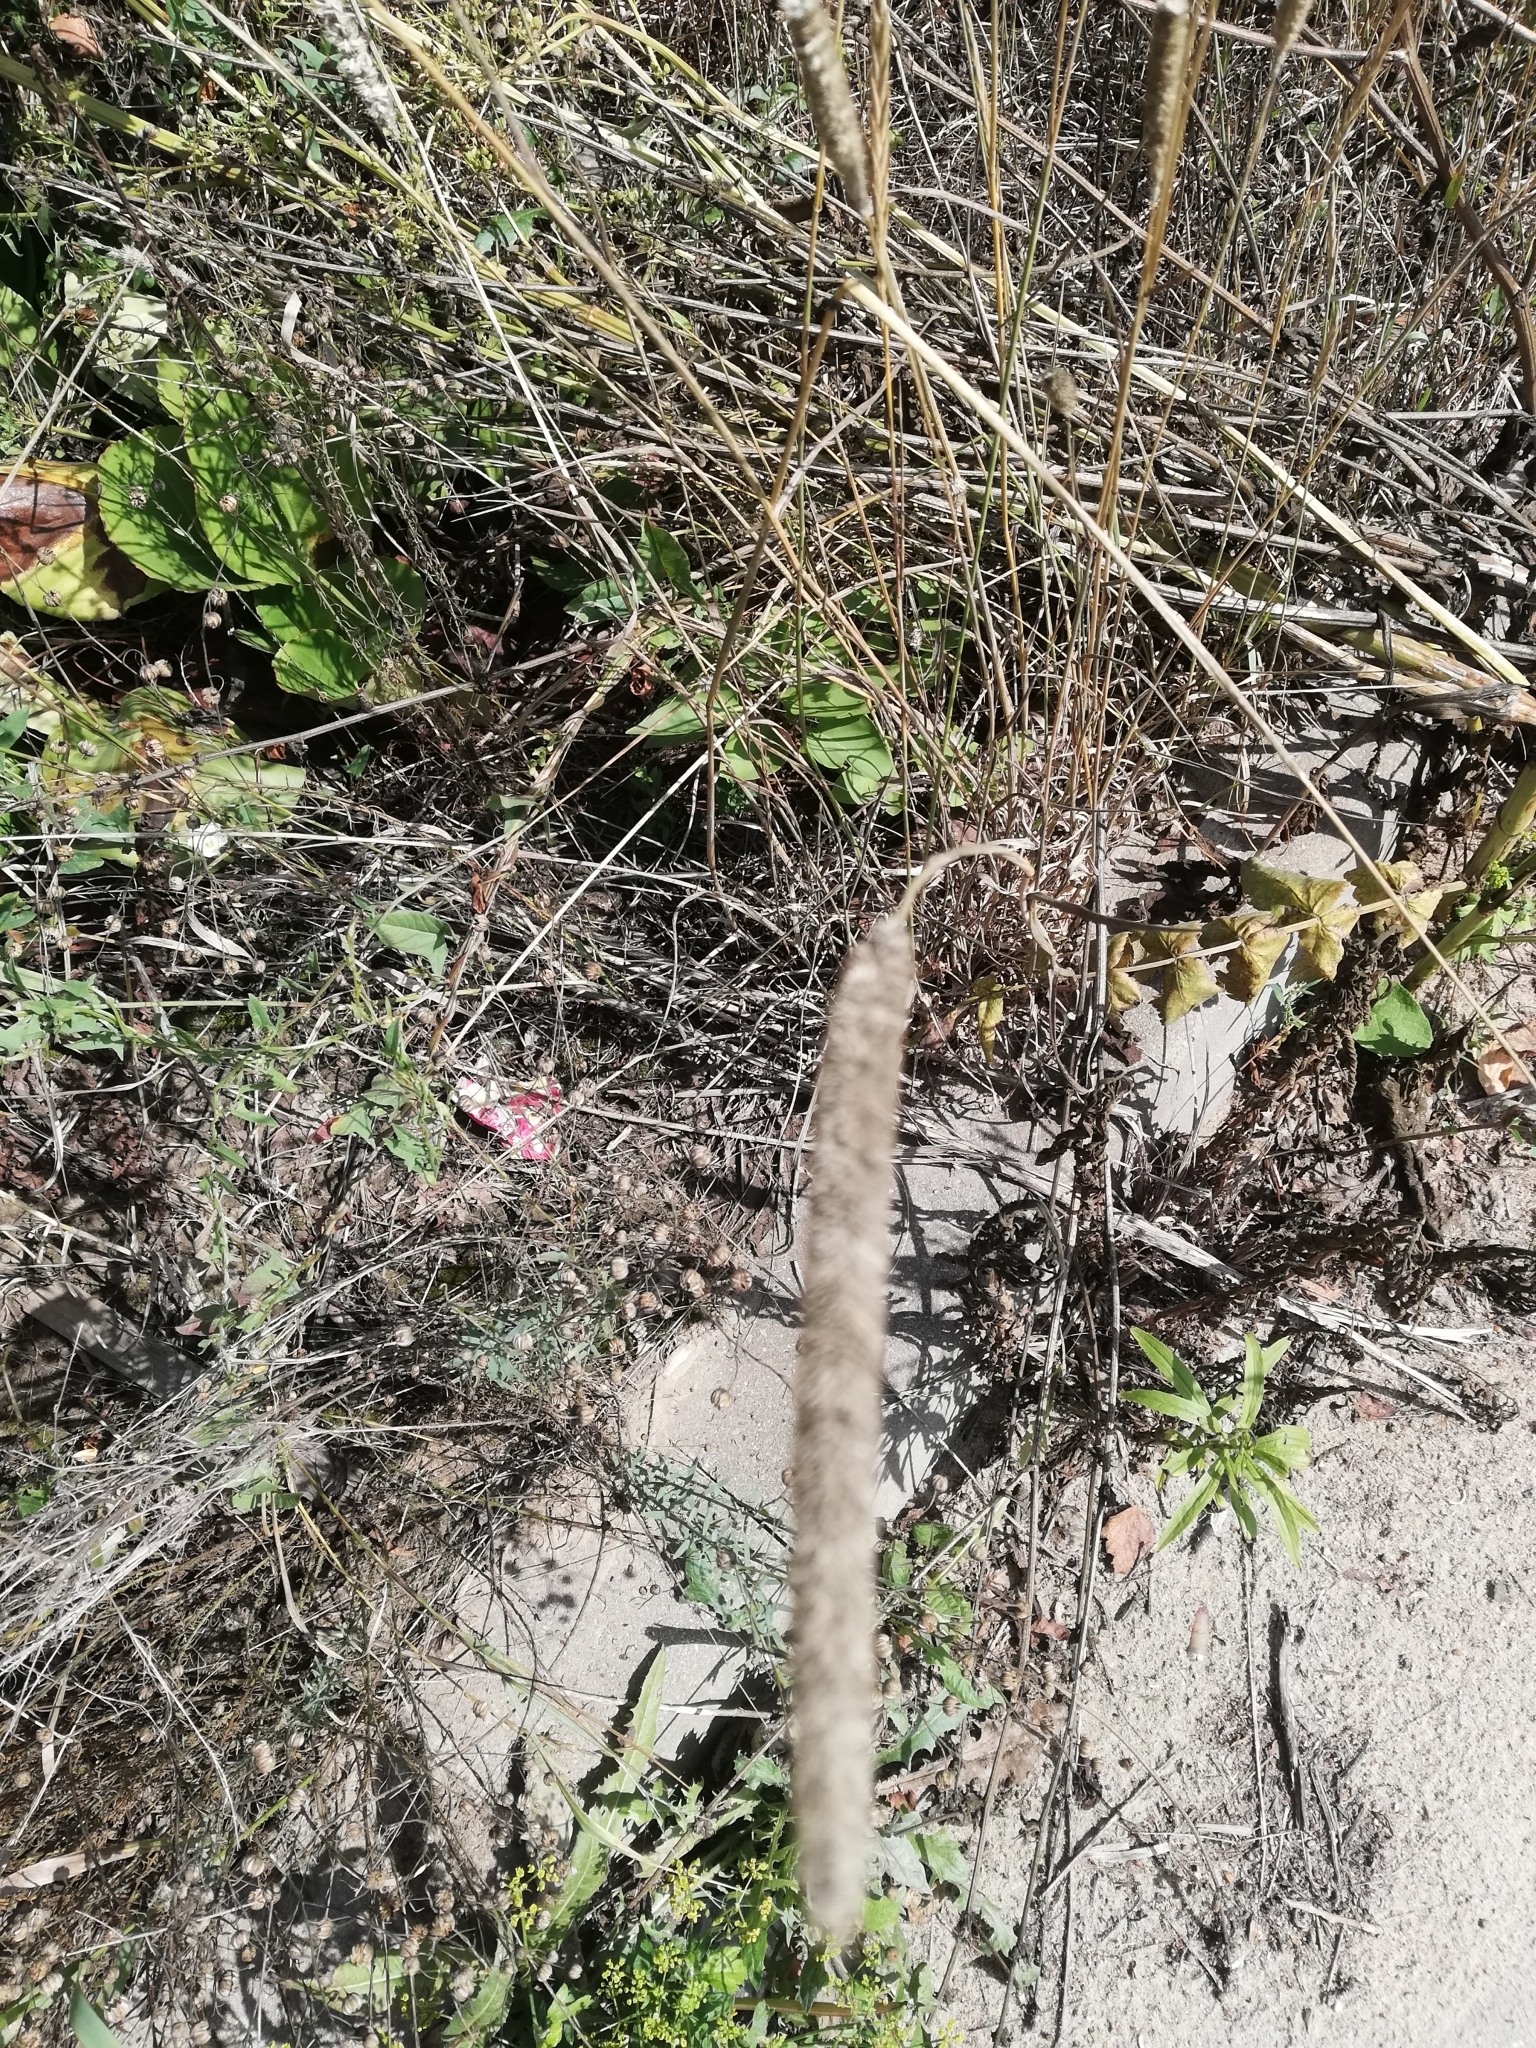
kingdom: Plantae
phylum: Tracheophyta
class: Liliopsida
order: Poales
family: Poaceae
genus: Phleum
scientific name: Phleum pratense
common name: Timothy grass
